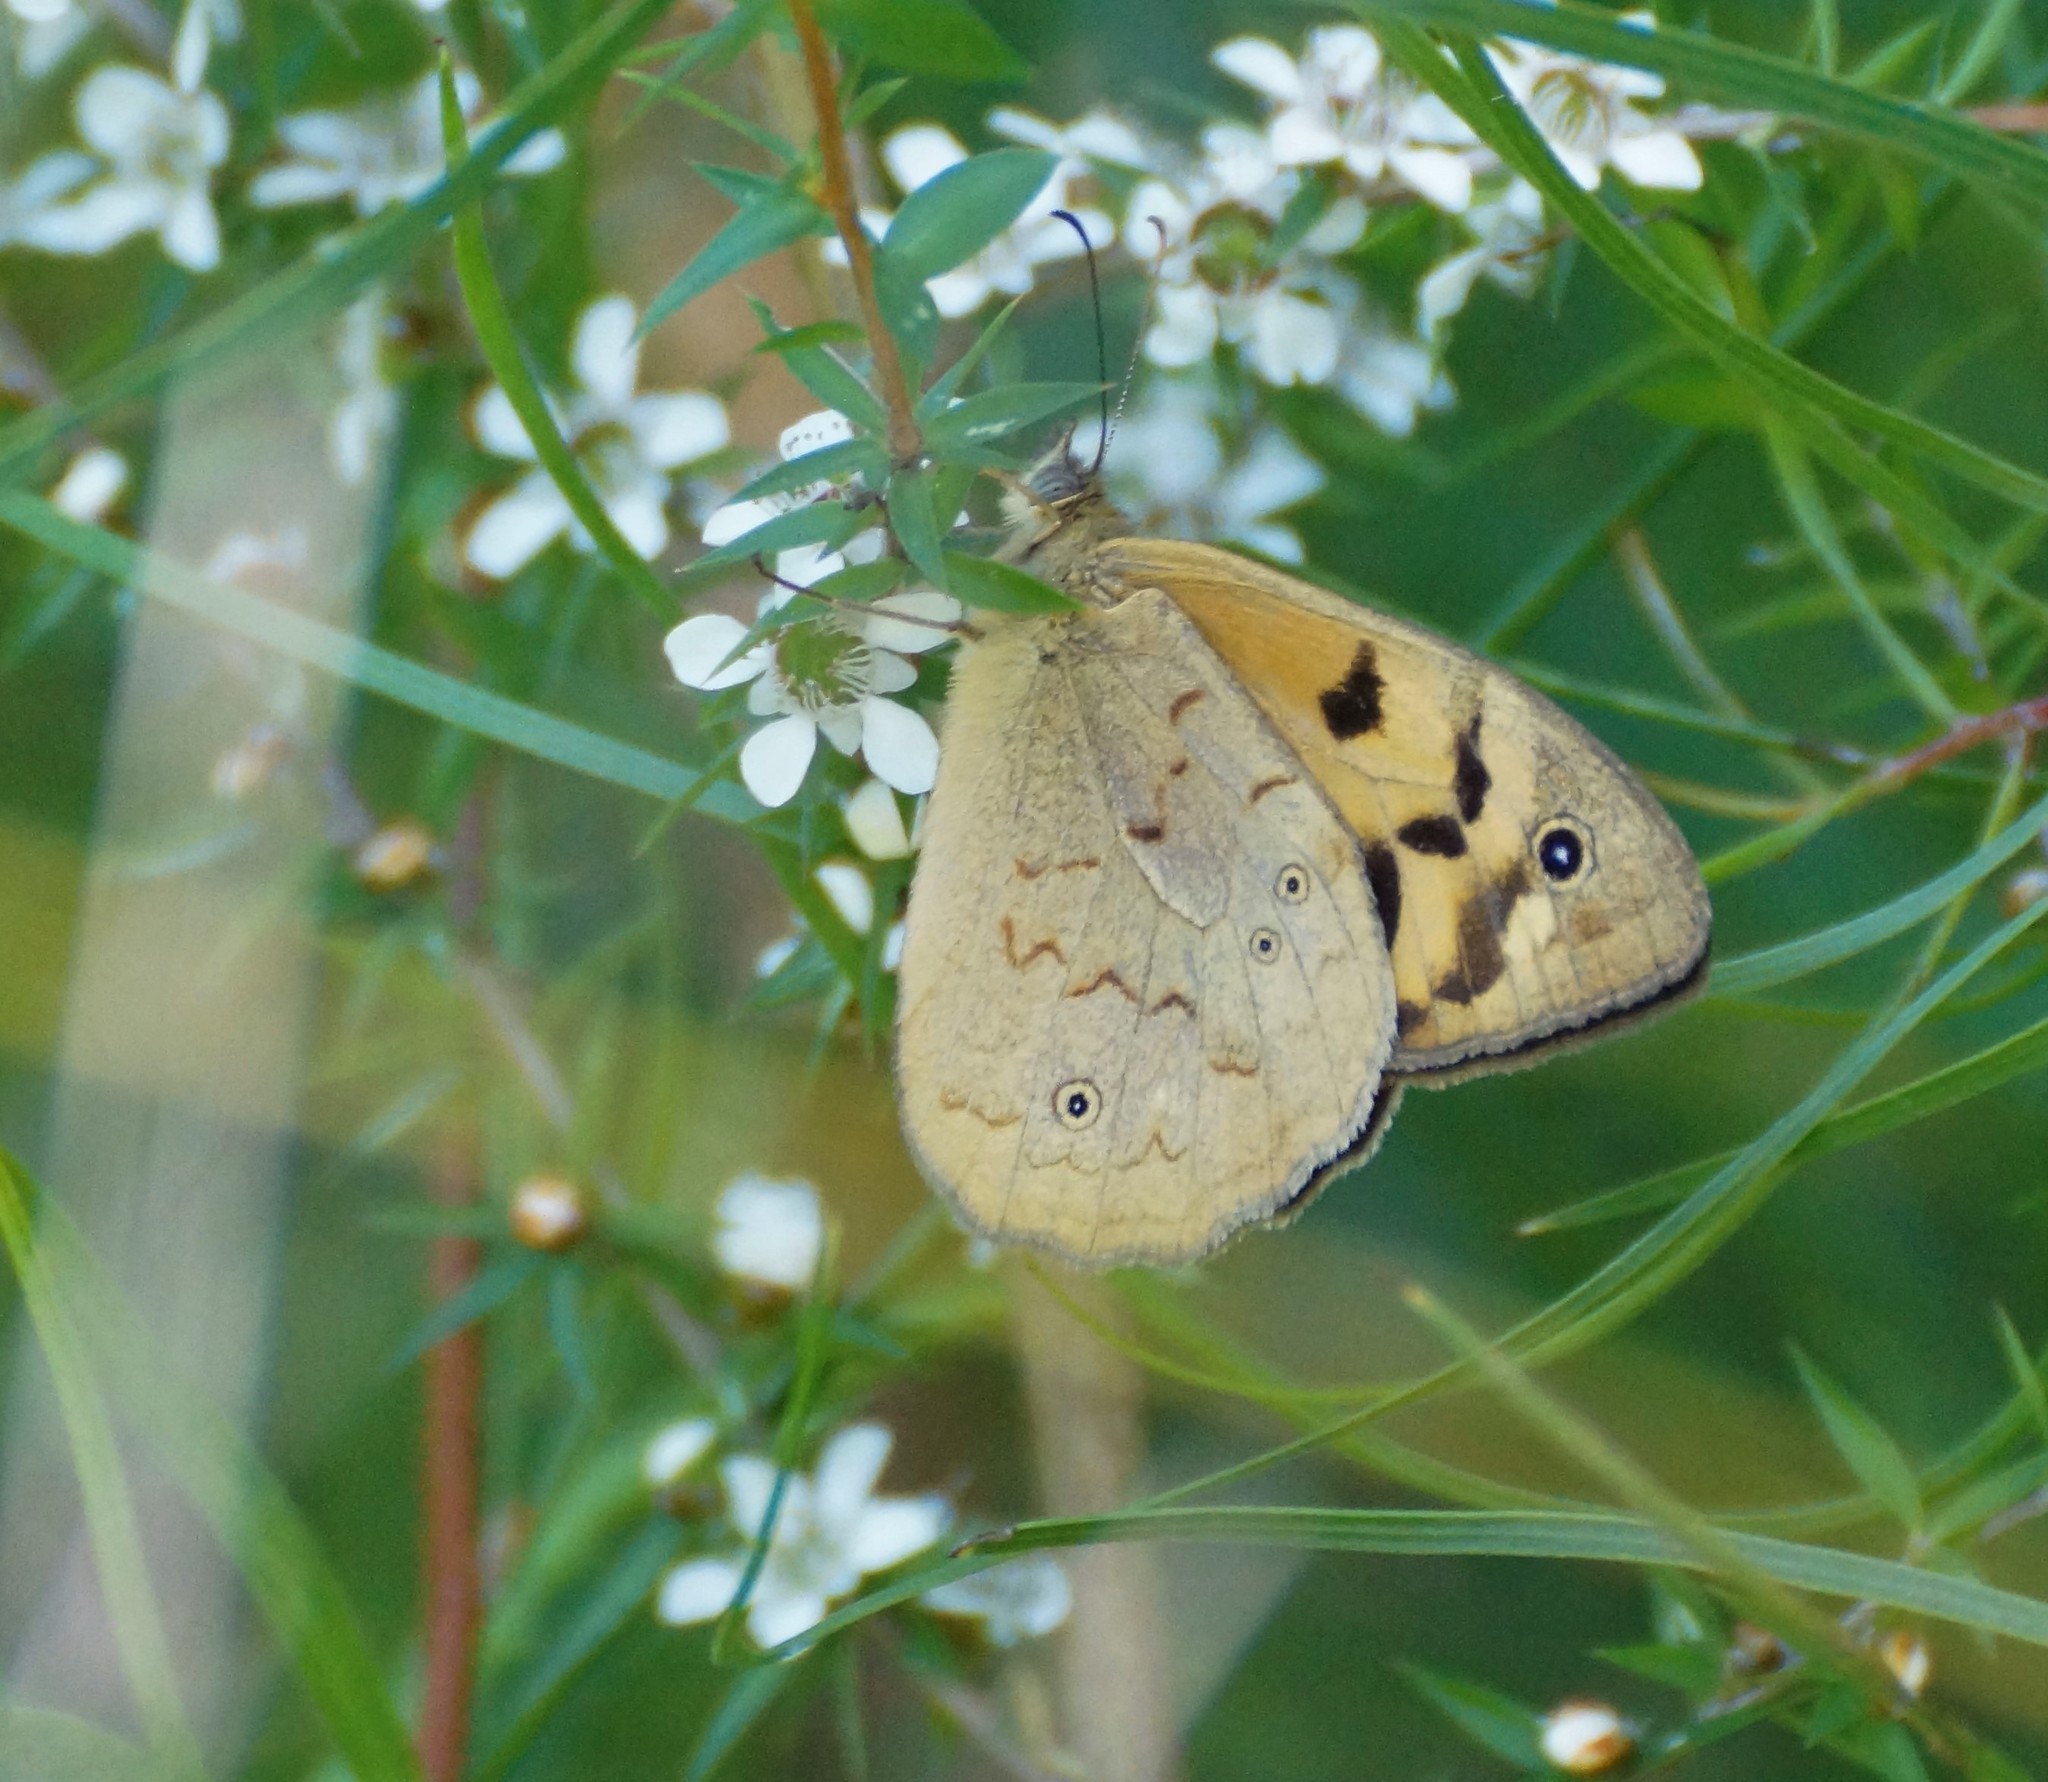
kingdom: Animalia
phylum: Arthropoda
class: Insecta
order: Lepidoptera
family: Nymphalidae
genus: Heteronympha
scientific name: Heteronympha merope
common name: Common brown
